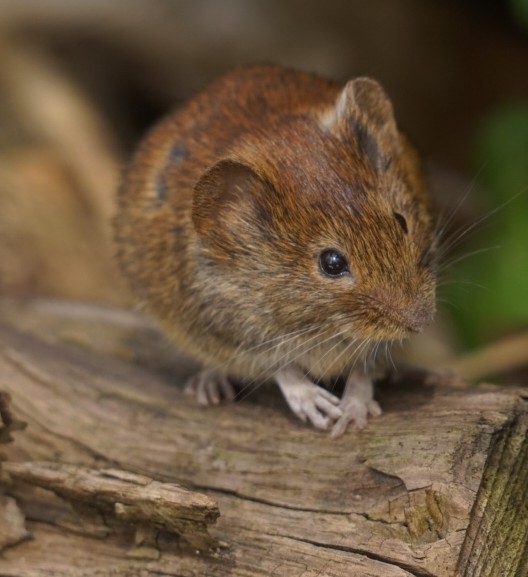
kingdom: Animalia
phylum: Chordata
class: Mammalia
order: Rodentia
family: Cricetidae
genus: Myodes
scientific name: Myodes glareolus
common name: Bank vole
